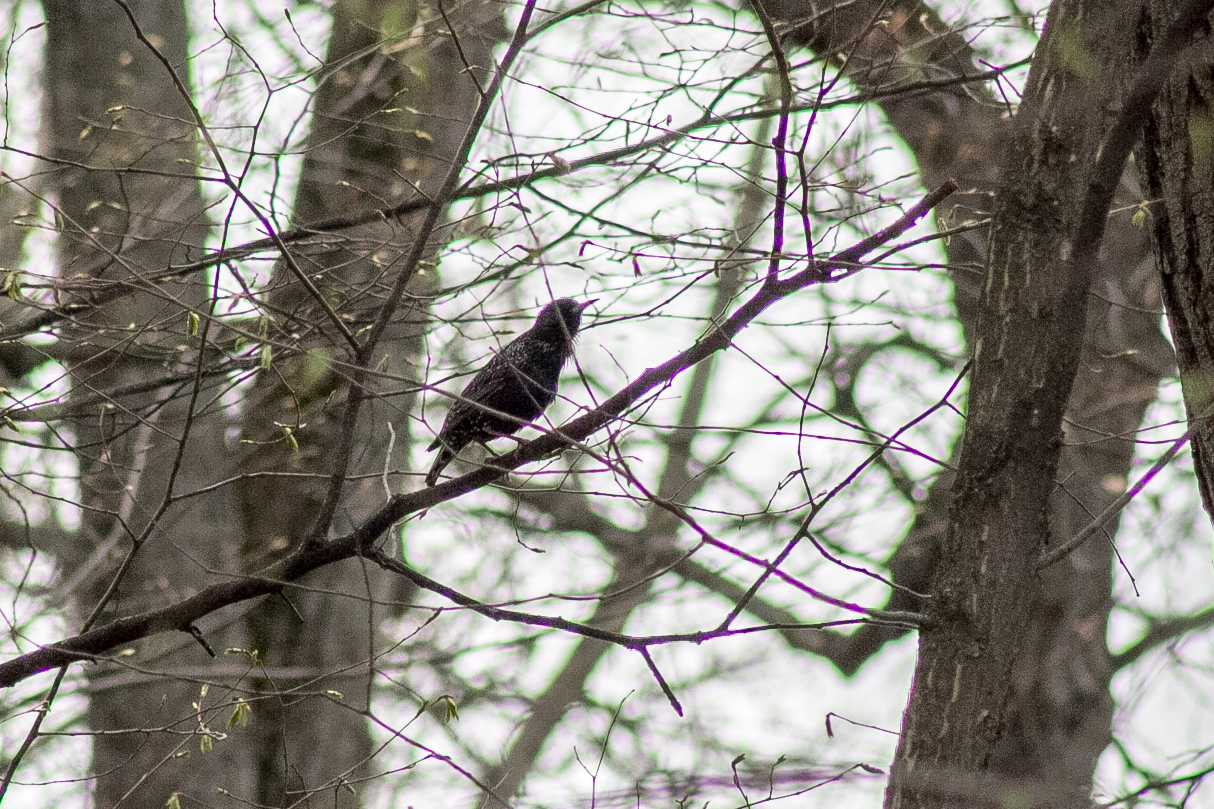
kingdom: Animalia
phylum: Chordata
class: Aves
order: Passeriformes
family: Sturnidae
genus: Sturnus
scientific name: Sturnus vulgaris
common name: Common starling
